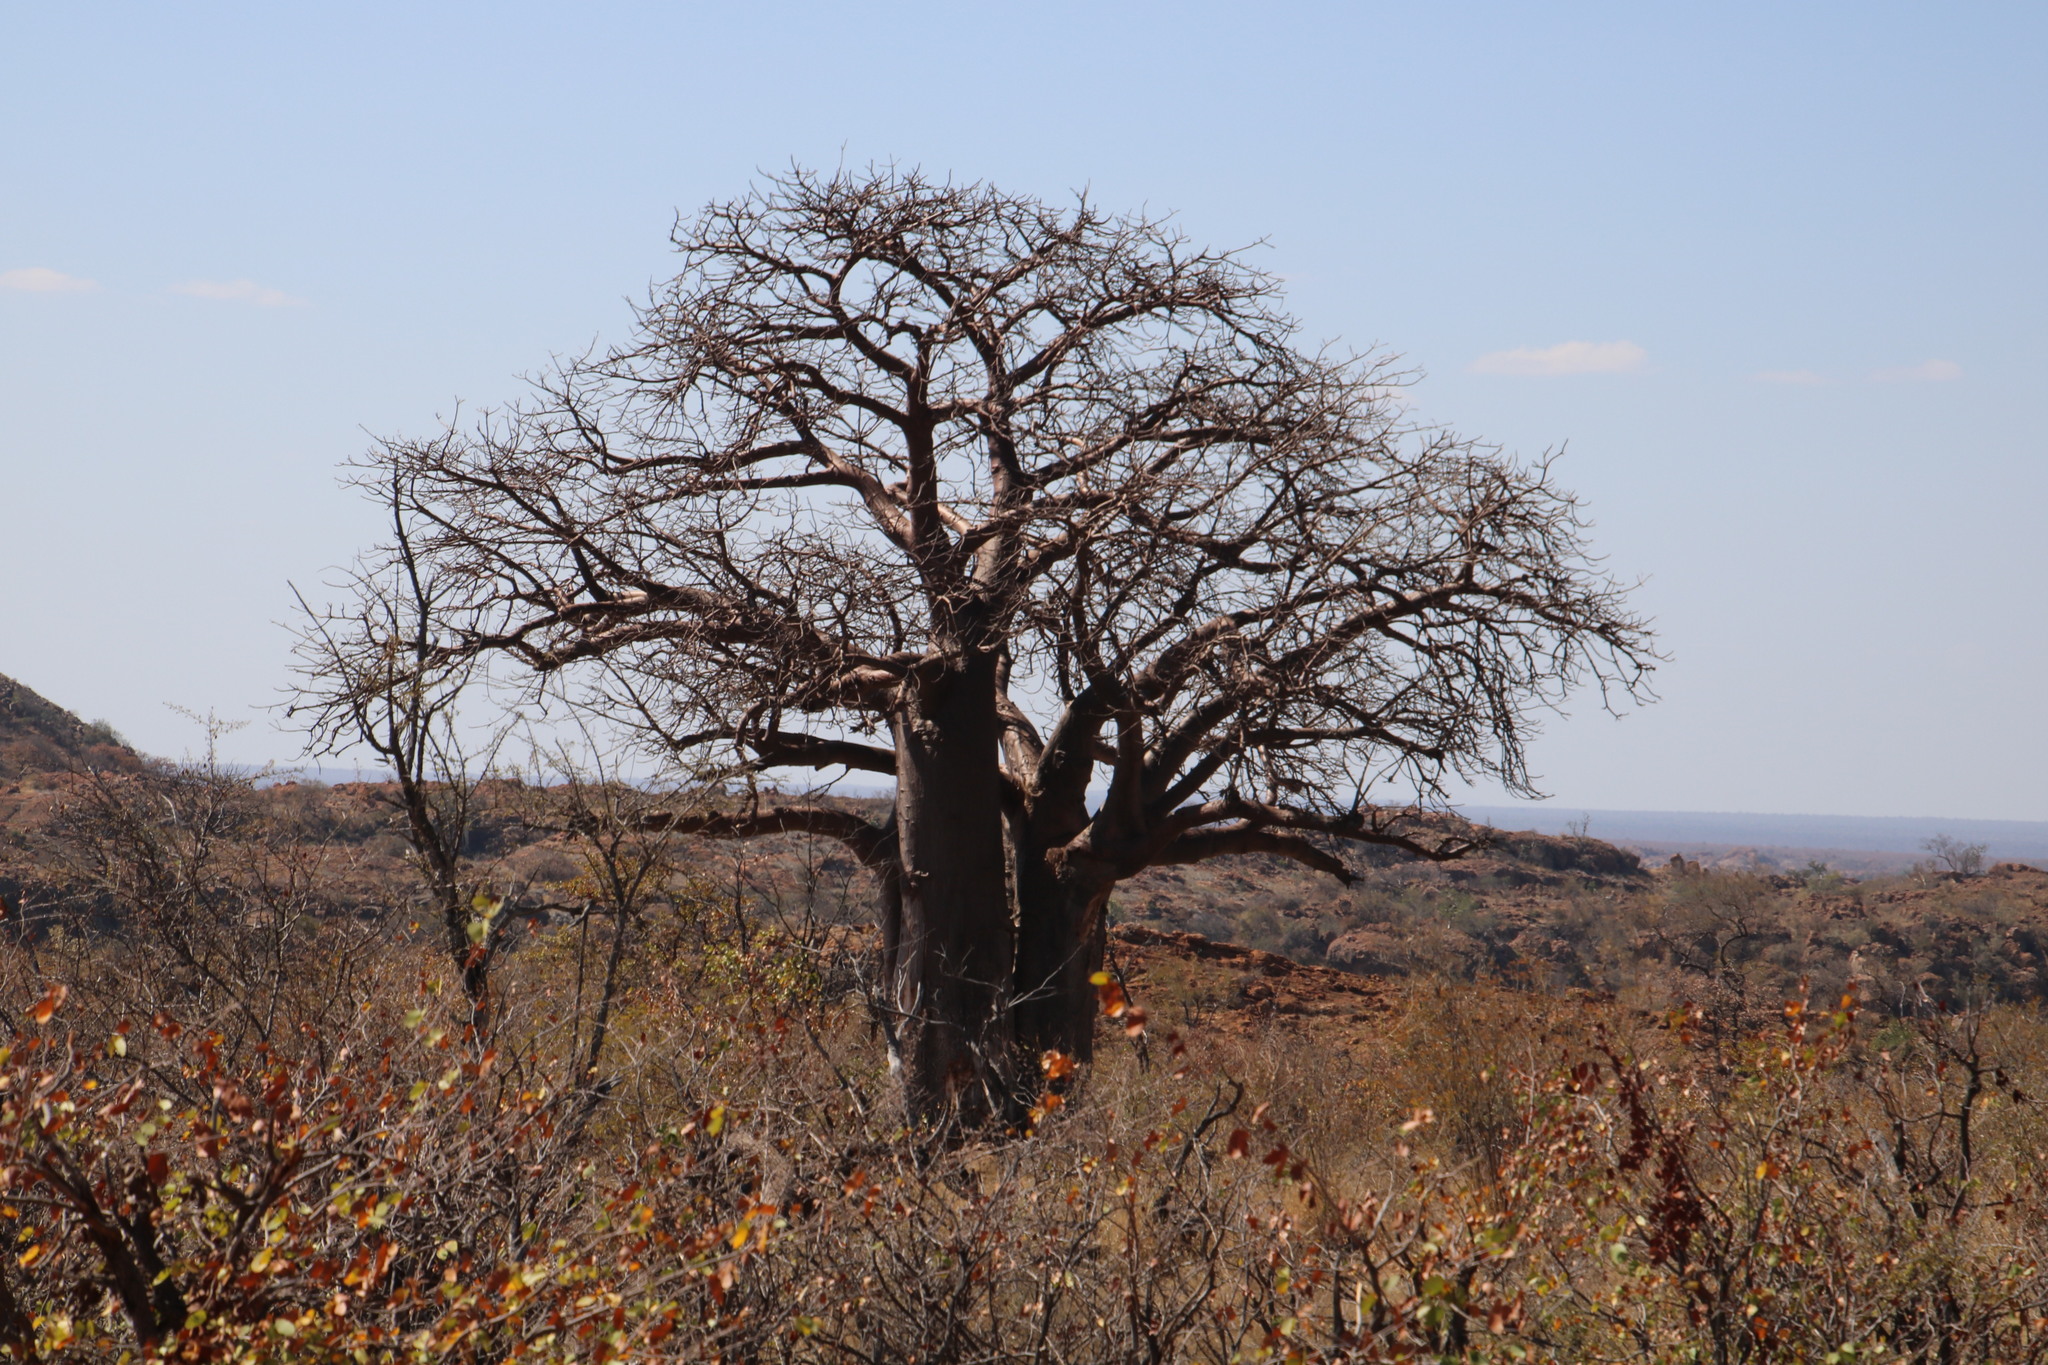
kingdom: Plantae
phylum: Tracheophyta
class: Magnoliopsida
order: Malvales
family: Malvaceae
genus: Adansonia
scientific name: Adansonia digitata
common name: Dead-rat-tree
